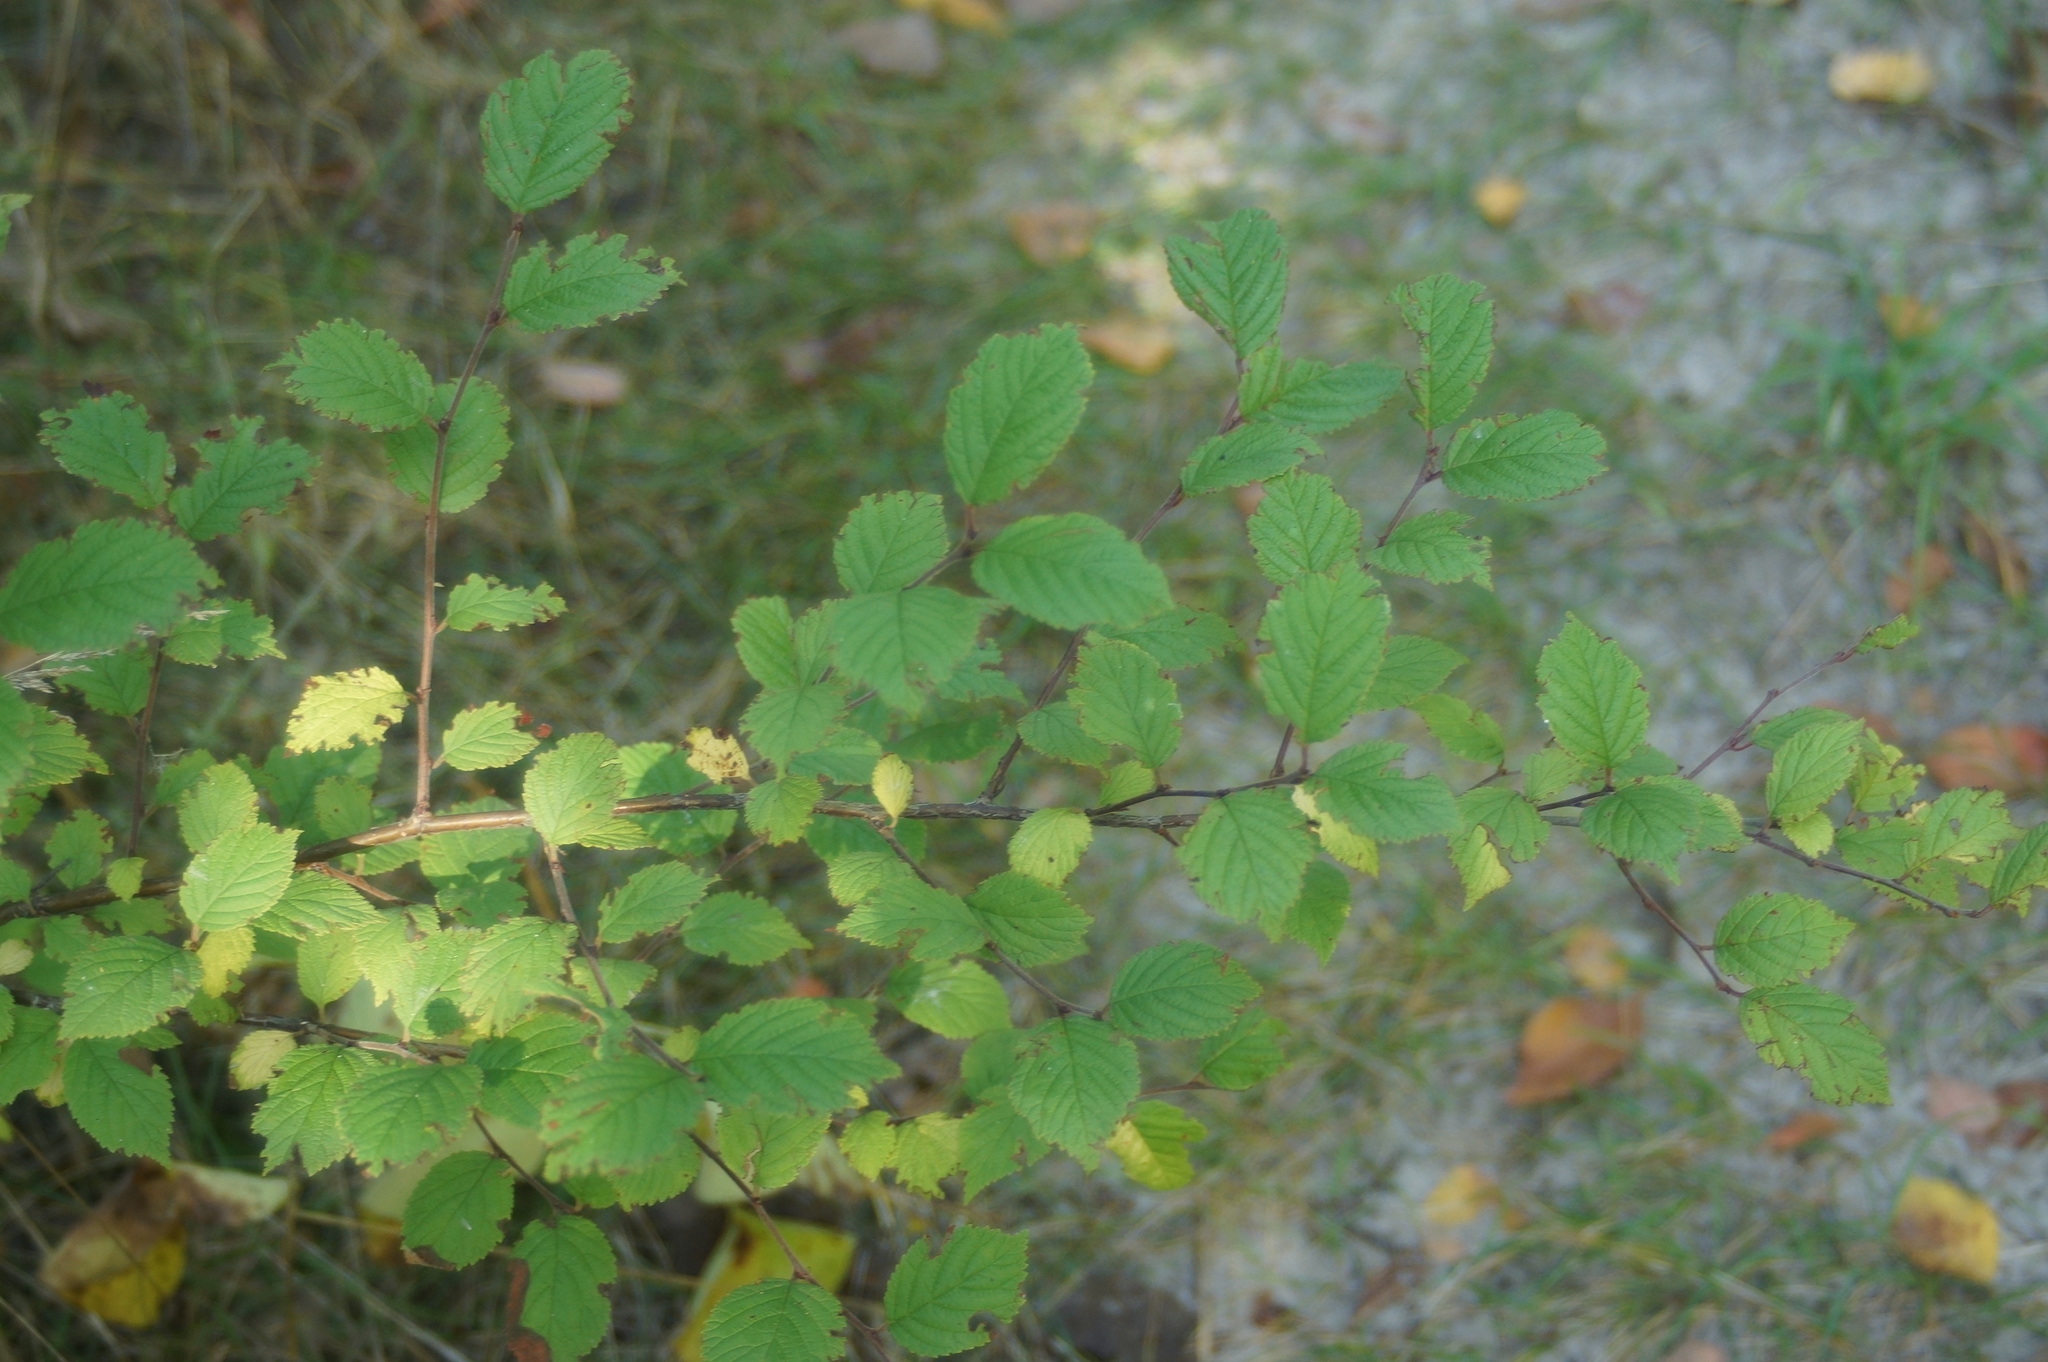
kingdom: Plantae
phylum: Tracheophyta
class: Magnoliopsida
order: Rosales
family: Rosaceae
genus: Prunus
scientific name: Prunus tomentosa
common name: Nanking cherry
